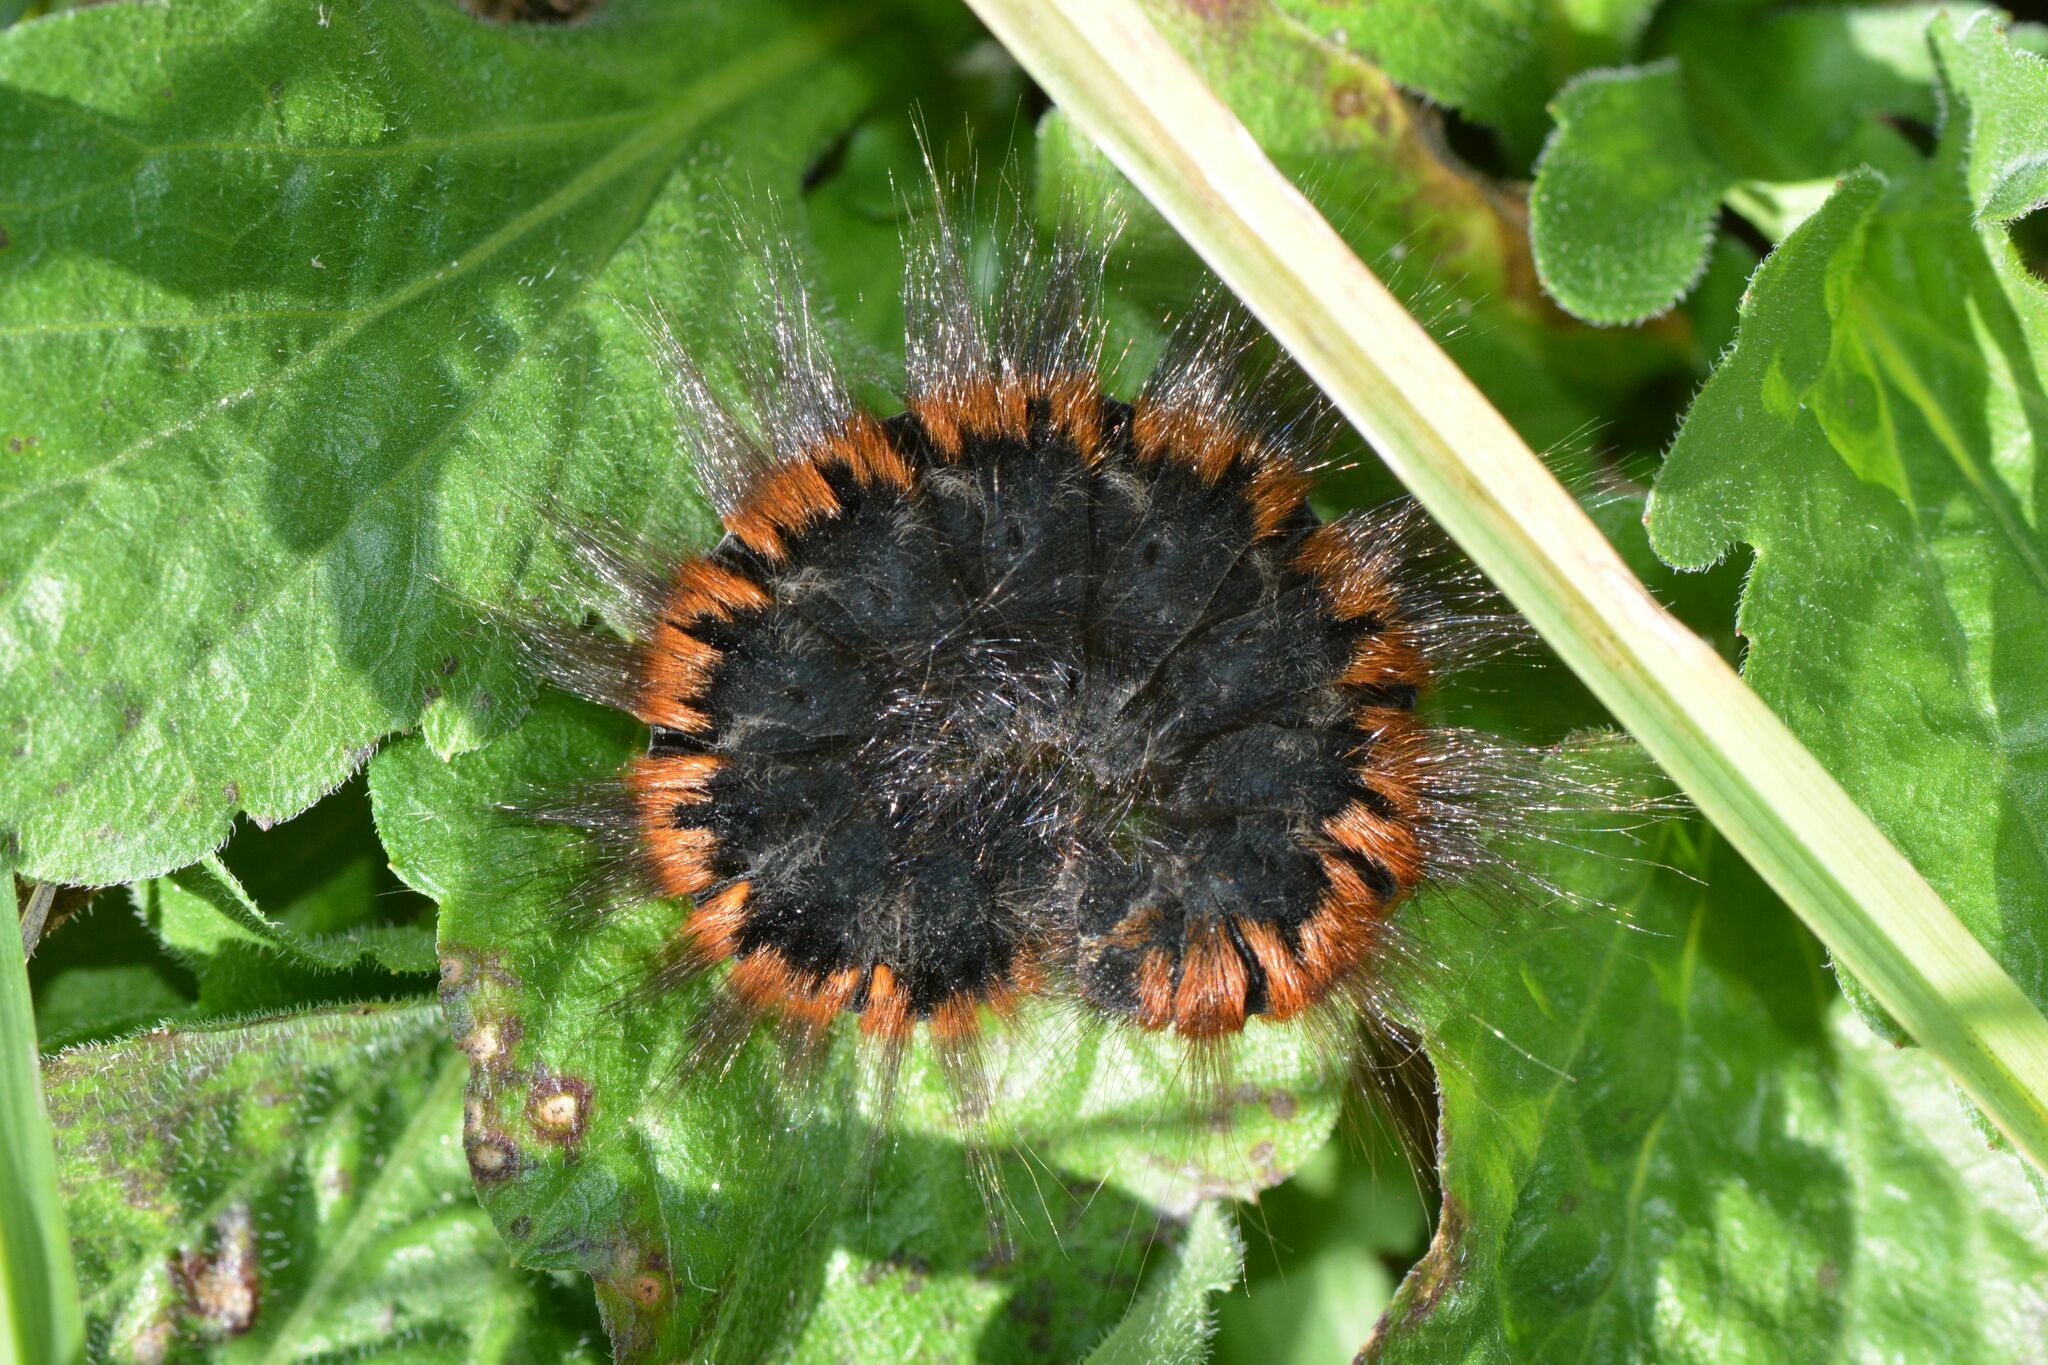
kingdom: Animalia
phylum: Arthropoda
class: Insecta
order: Lepidoptera
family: Lasiocampidae
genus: Macrothylacia
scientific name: Macrothylacia rubi
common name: Fox moth
